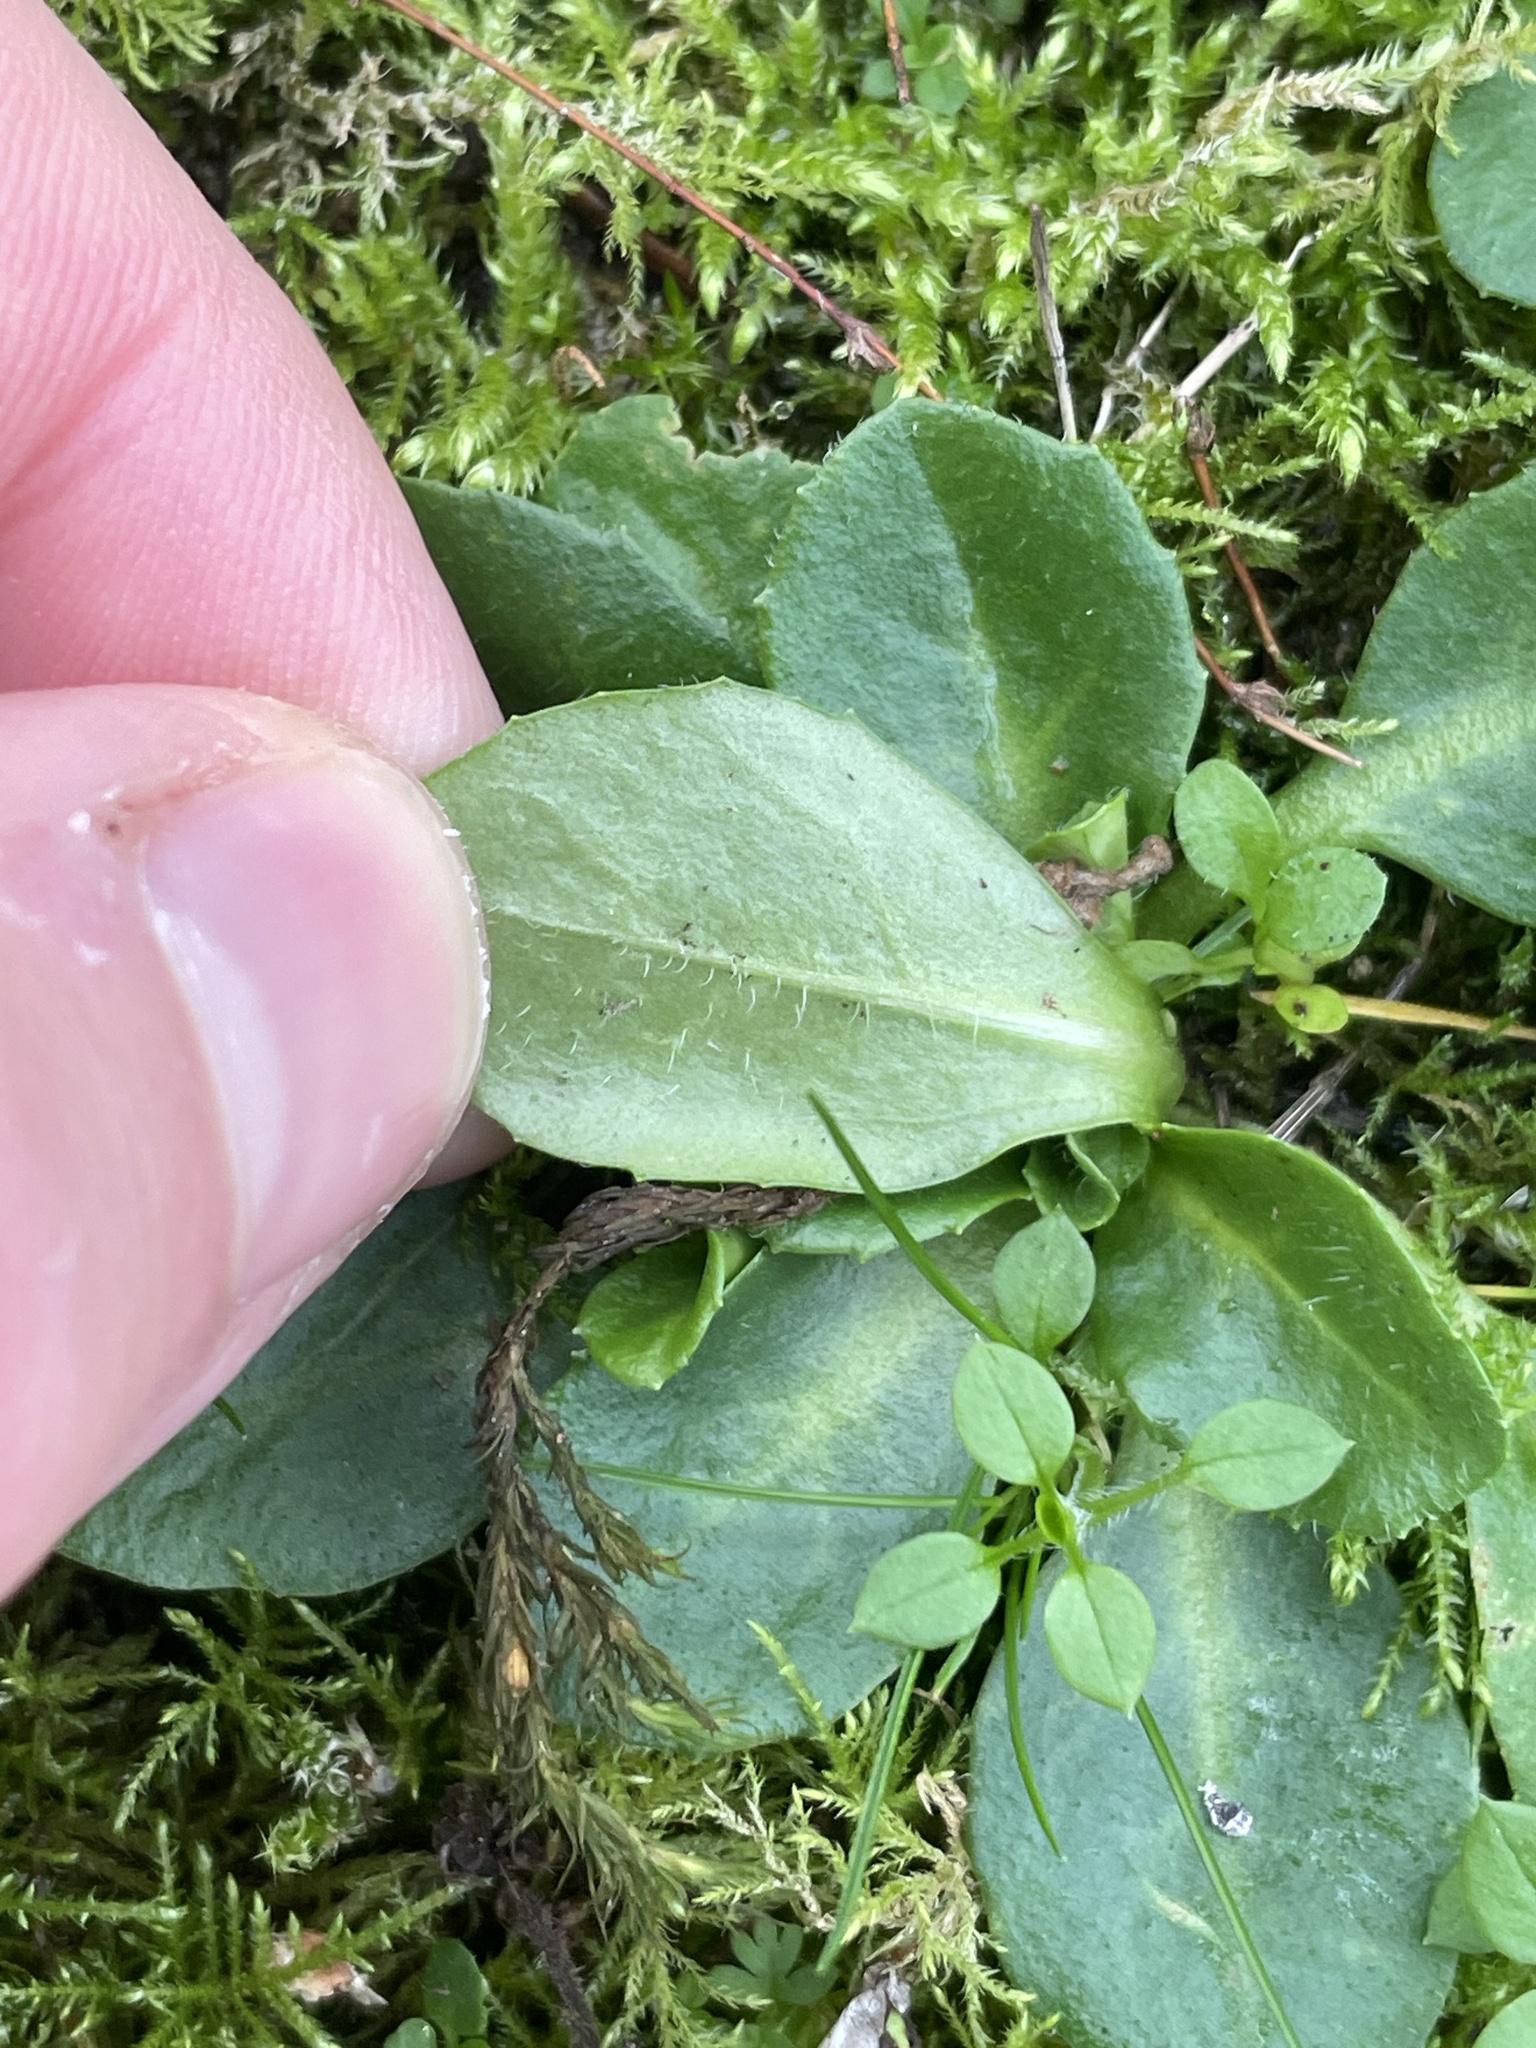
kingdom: Plantae
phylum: Tracheophyta
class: Magnoliopsida
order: Asterales
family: Asteraceae
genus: Bellis
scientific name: Bellis perennis
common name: Lawndaisy
